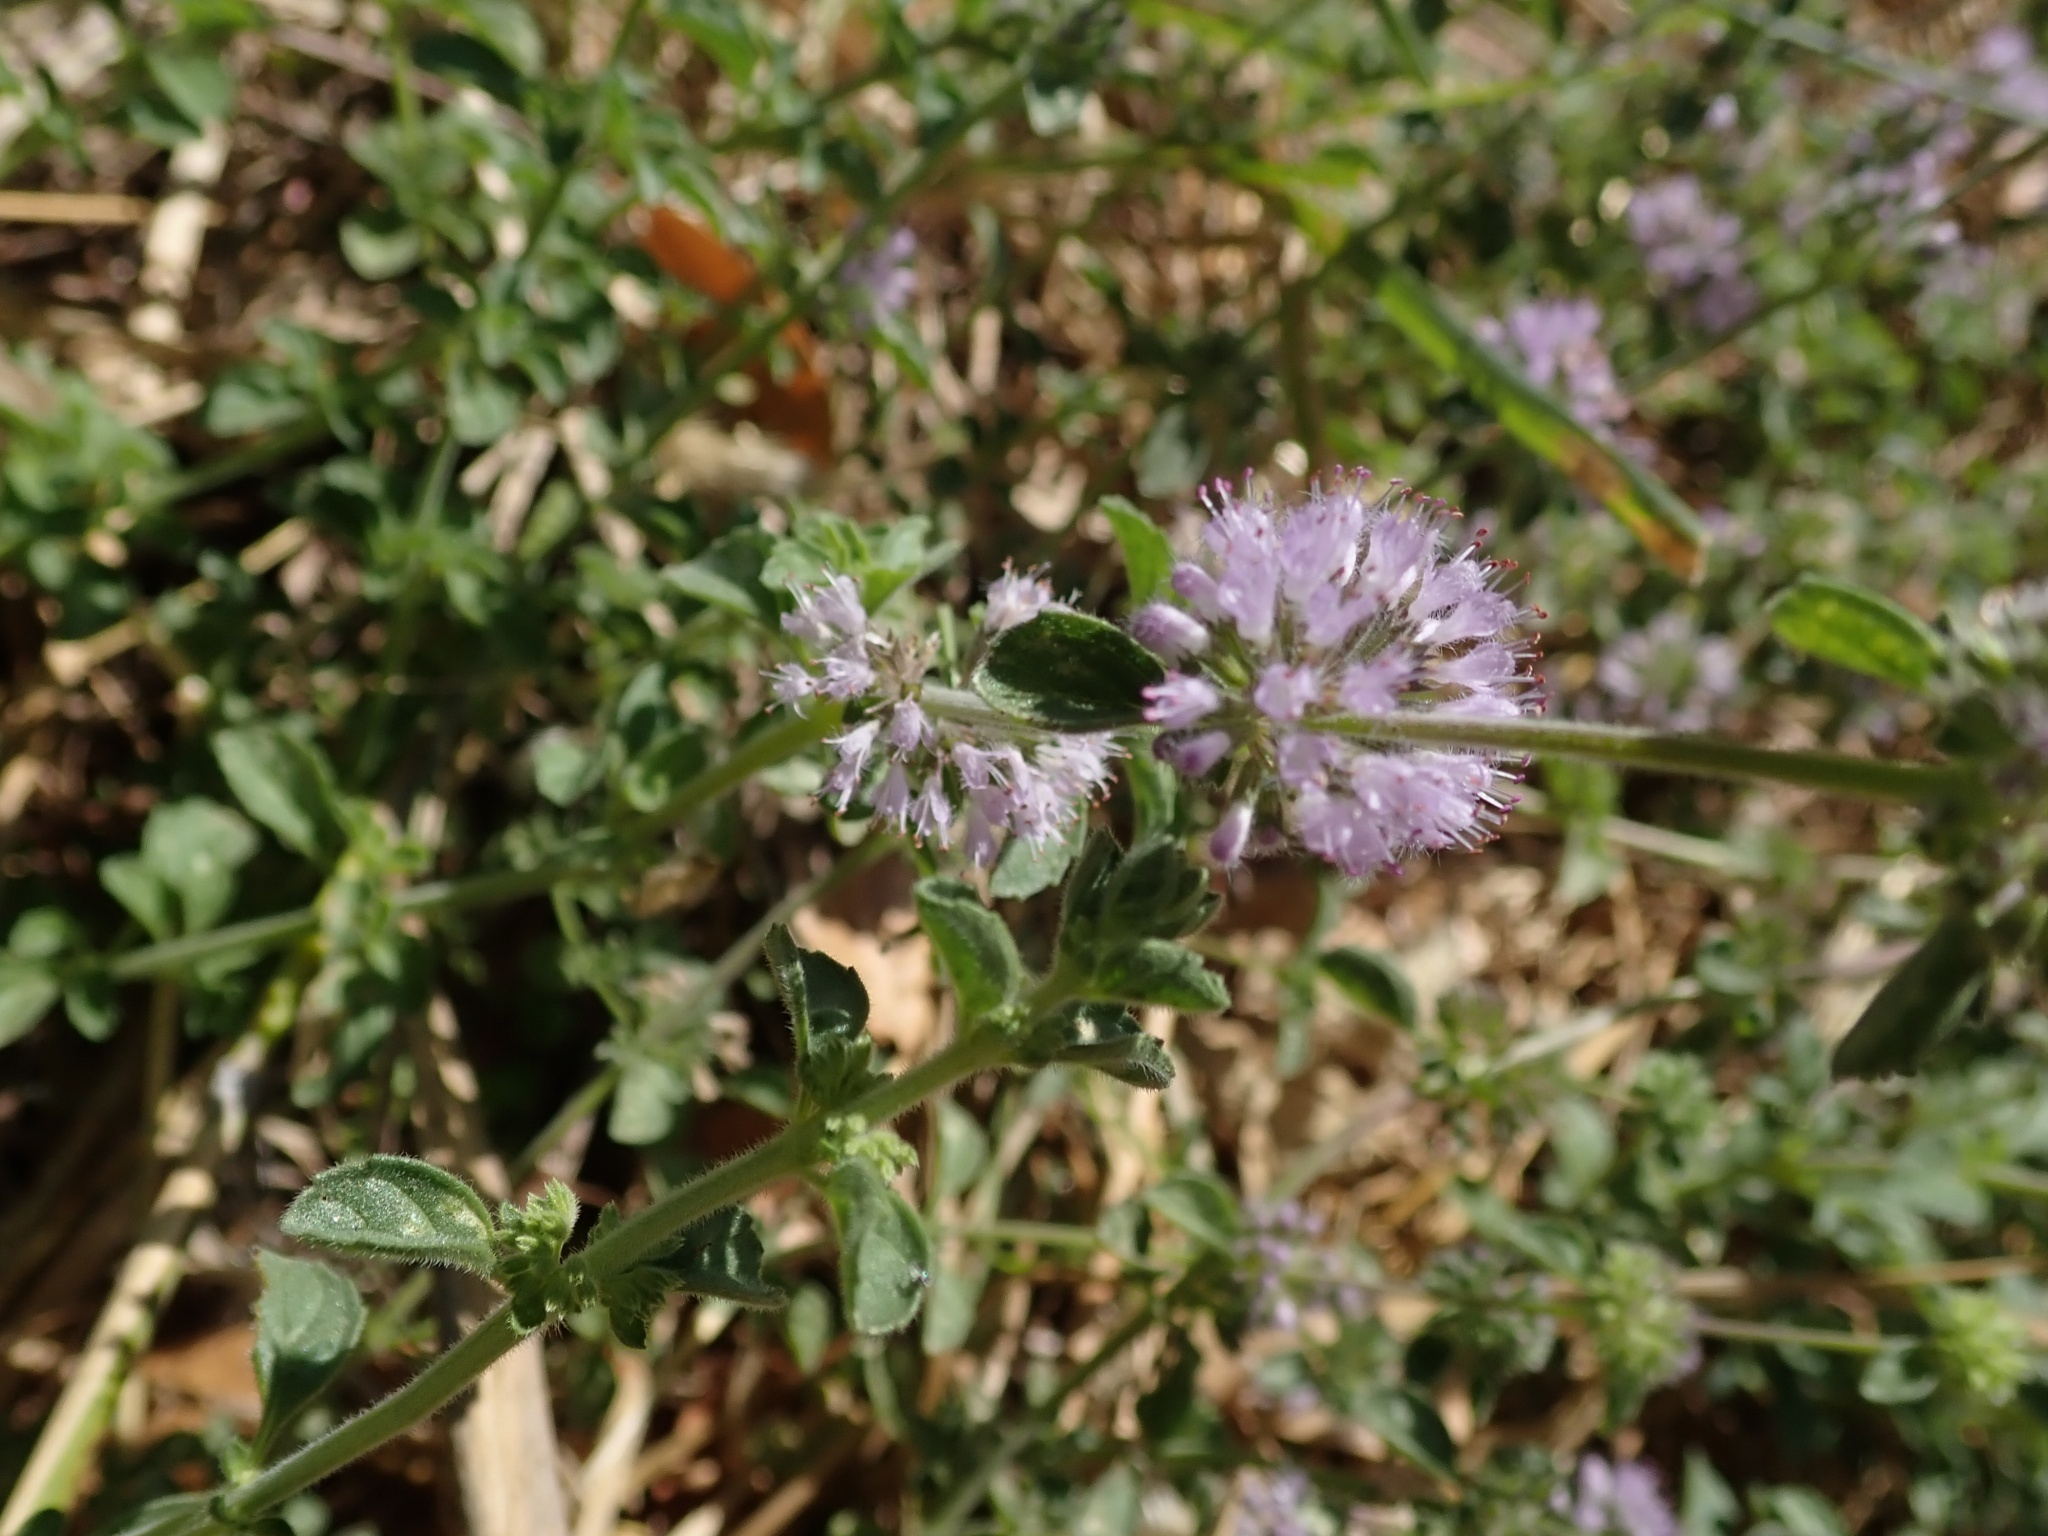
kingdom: Plantae
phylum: Tracheophyta
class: Magnoliopsida
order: Lamiales
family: Lamiaceae
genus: Mentha
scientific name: Mentha pulegium
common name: Pennyroyal
